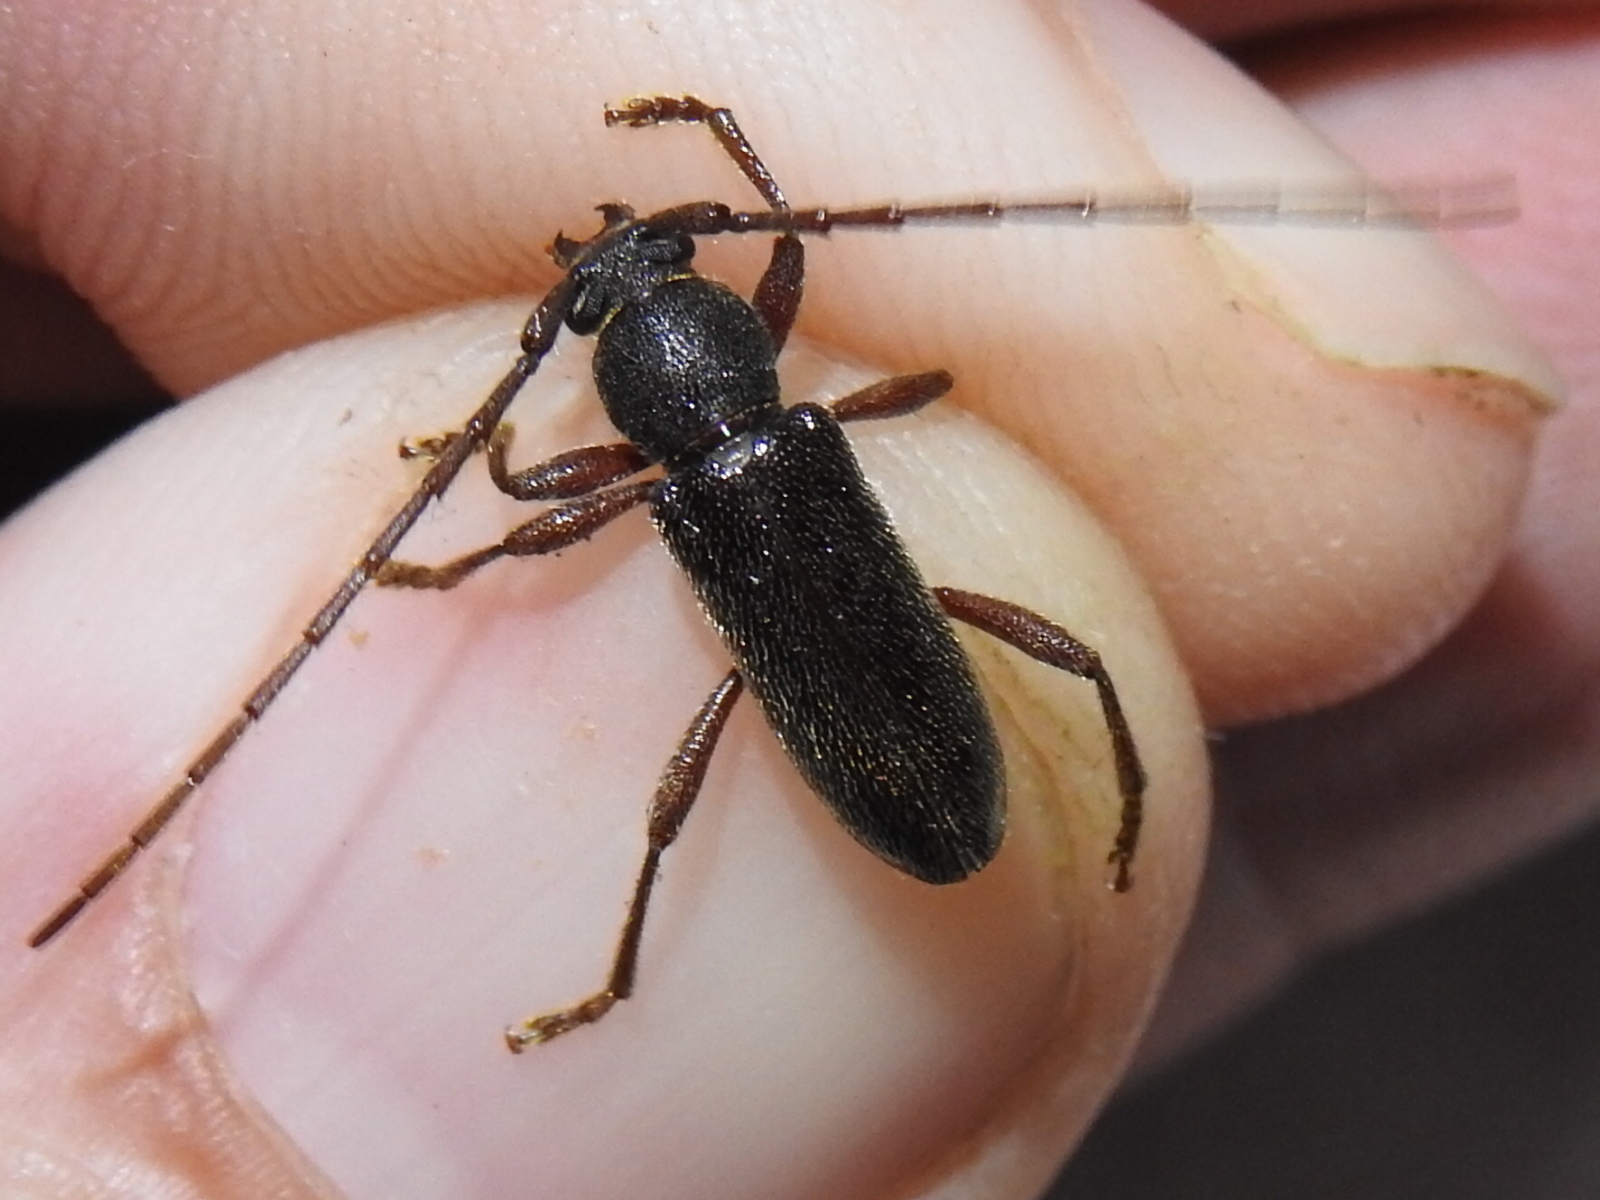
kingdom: Animalia
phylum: Arthropoda
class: Insecta
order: Coleoptera
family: Cerambycidae
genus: Anelaphus
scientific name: Anelaphus moestus
